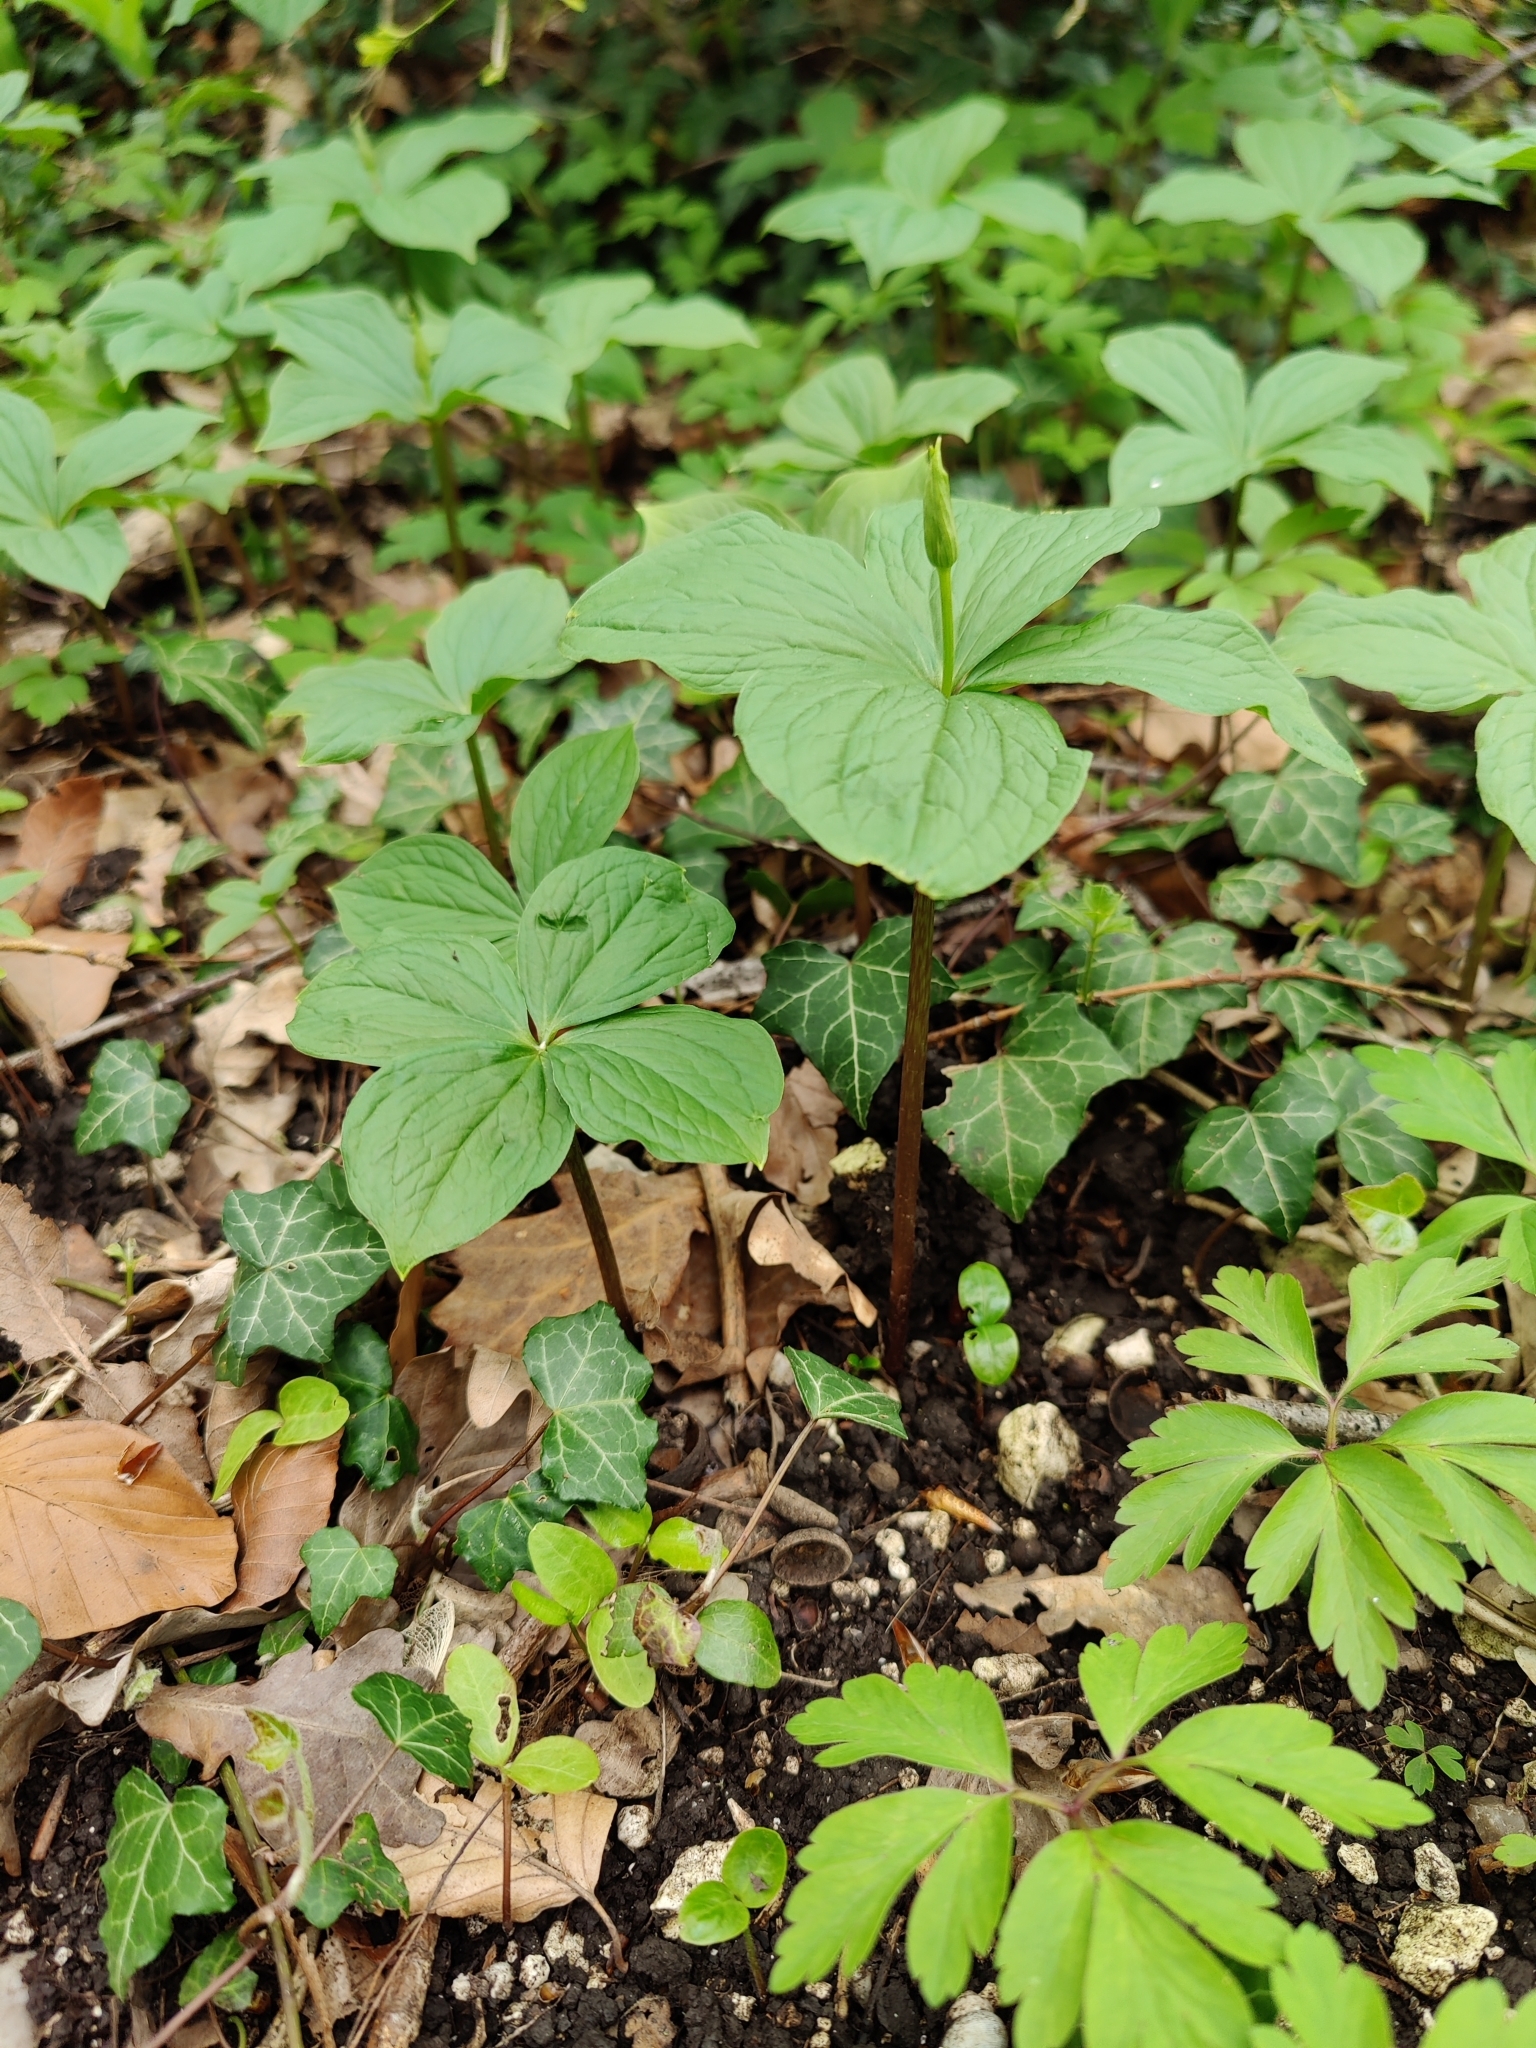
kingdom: Plantae
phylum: Tracheophyta
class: Liliopsida
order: Liliales
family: Melanthiaceae
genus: Paris
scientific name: Paris quadrifolia
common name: Herb-paris
